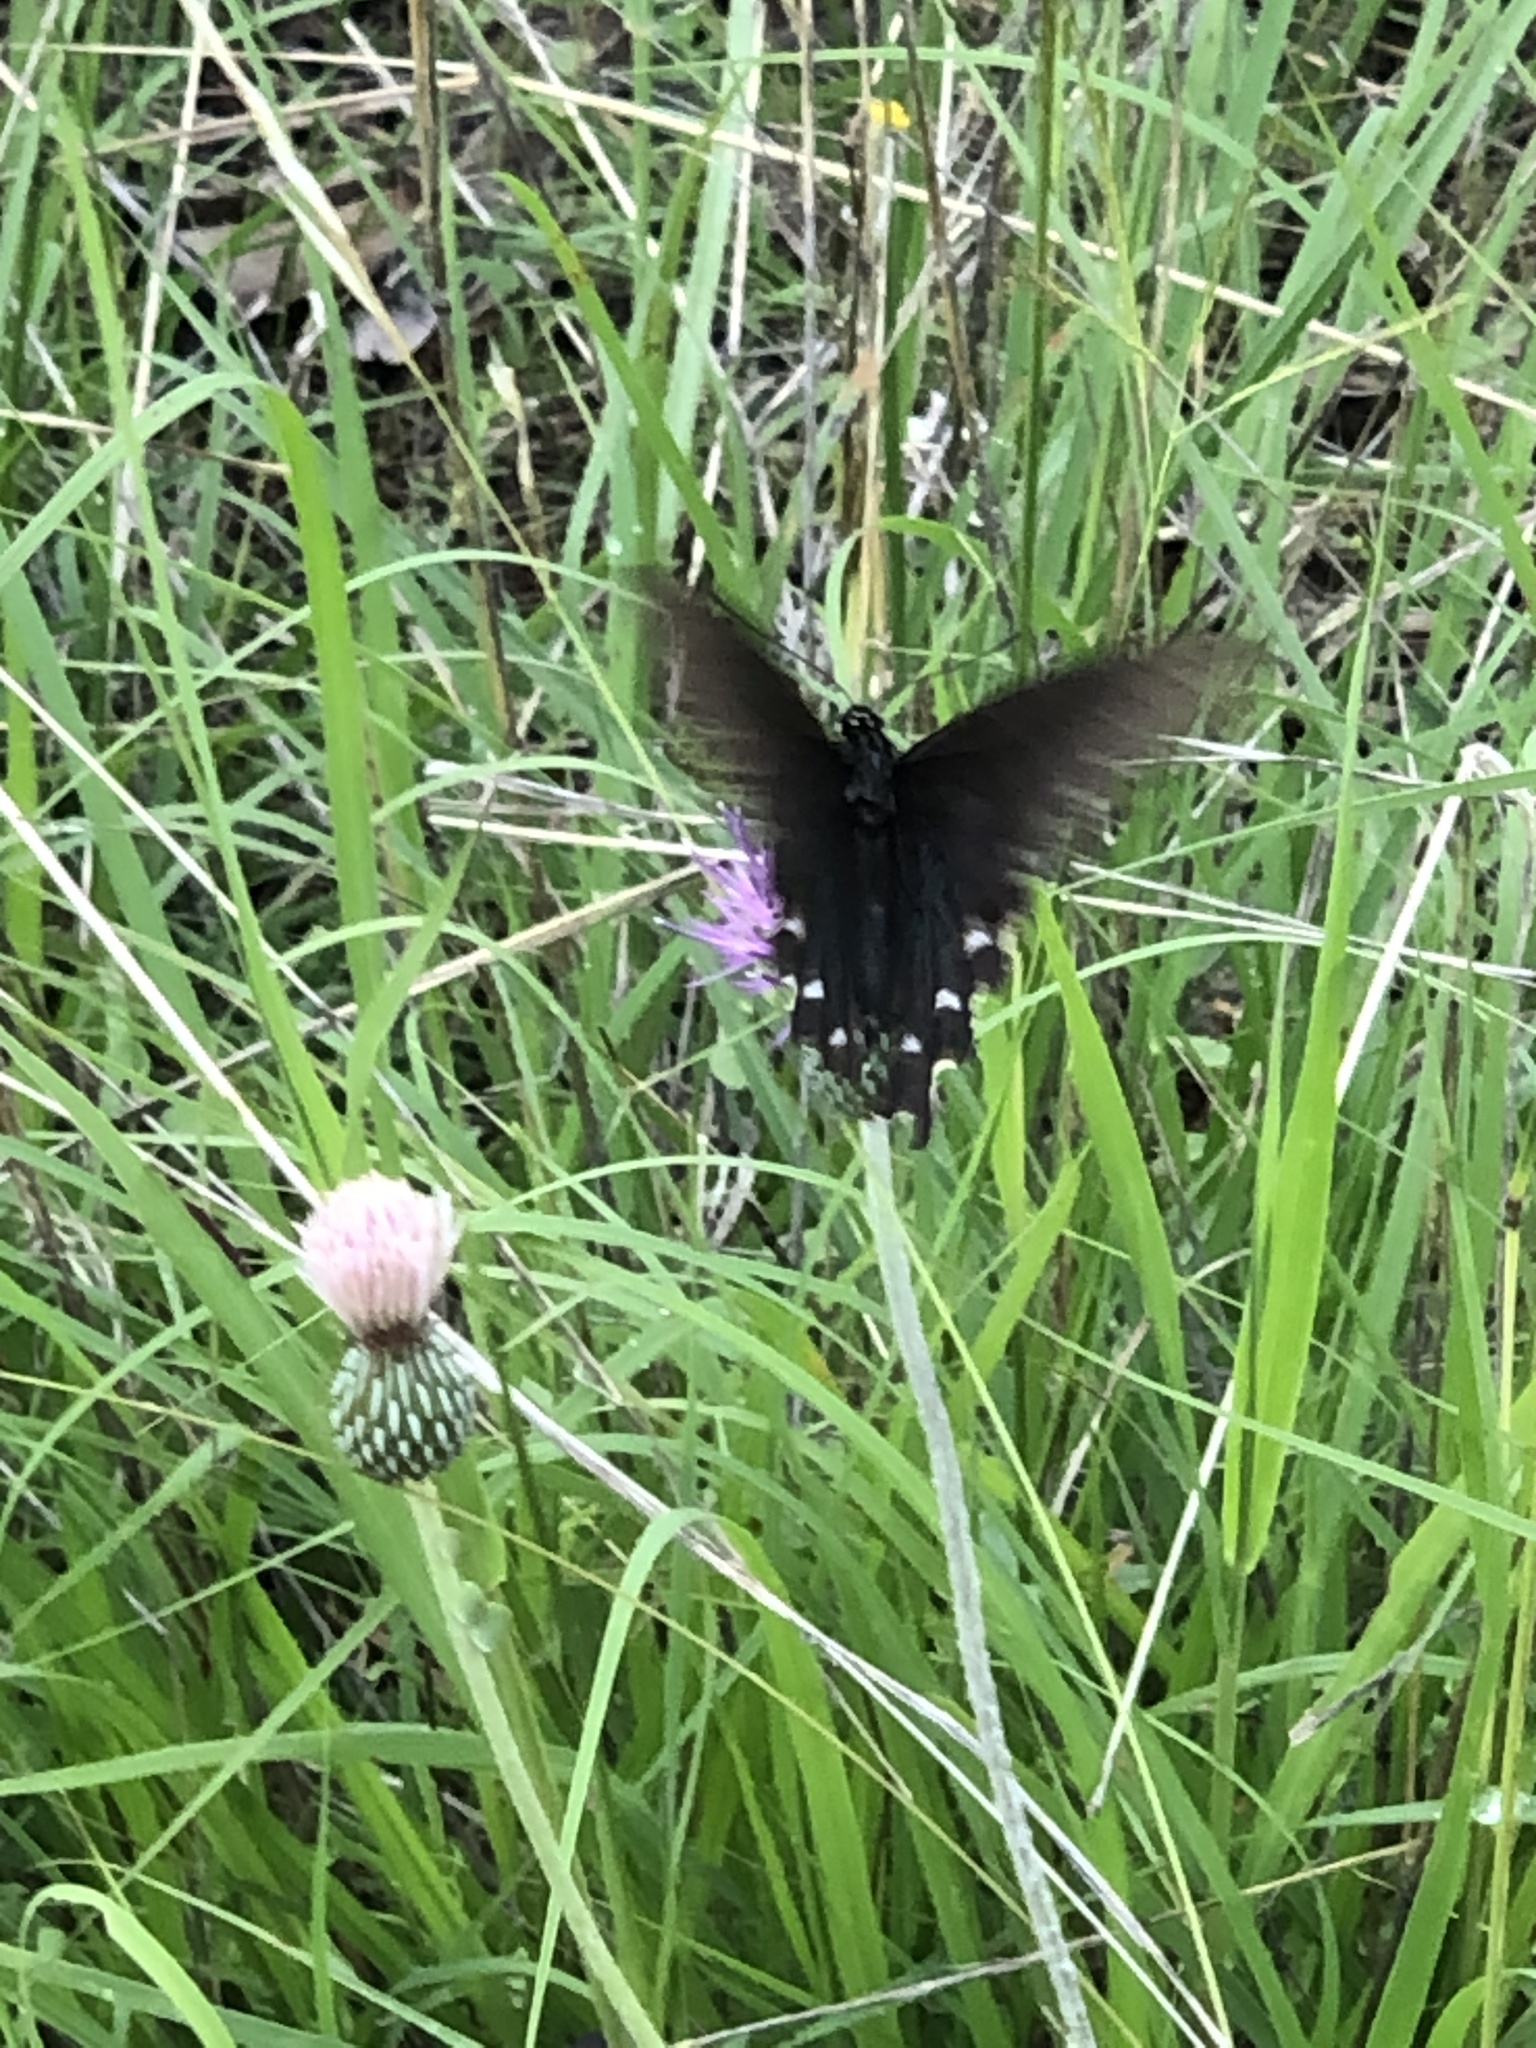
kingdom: Animalia
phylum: Arthropoda
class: Insecta
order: Lepidoptera
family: Papilionidae
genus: Battus
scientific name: Battus philenor
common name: Pipevine swallowtail
